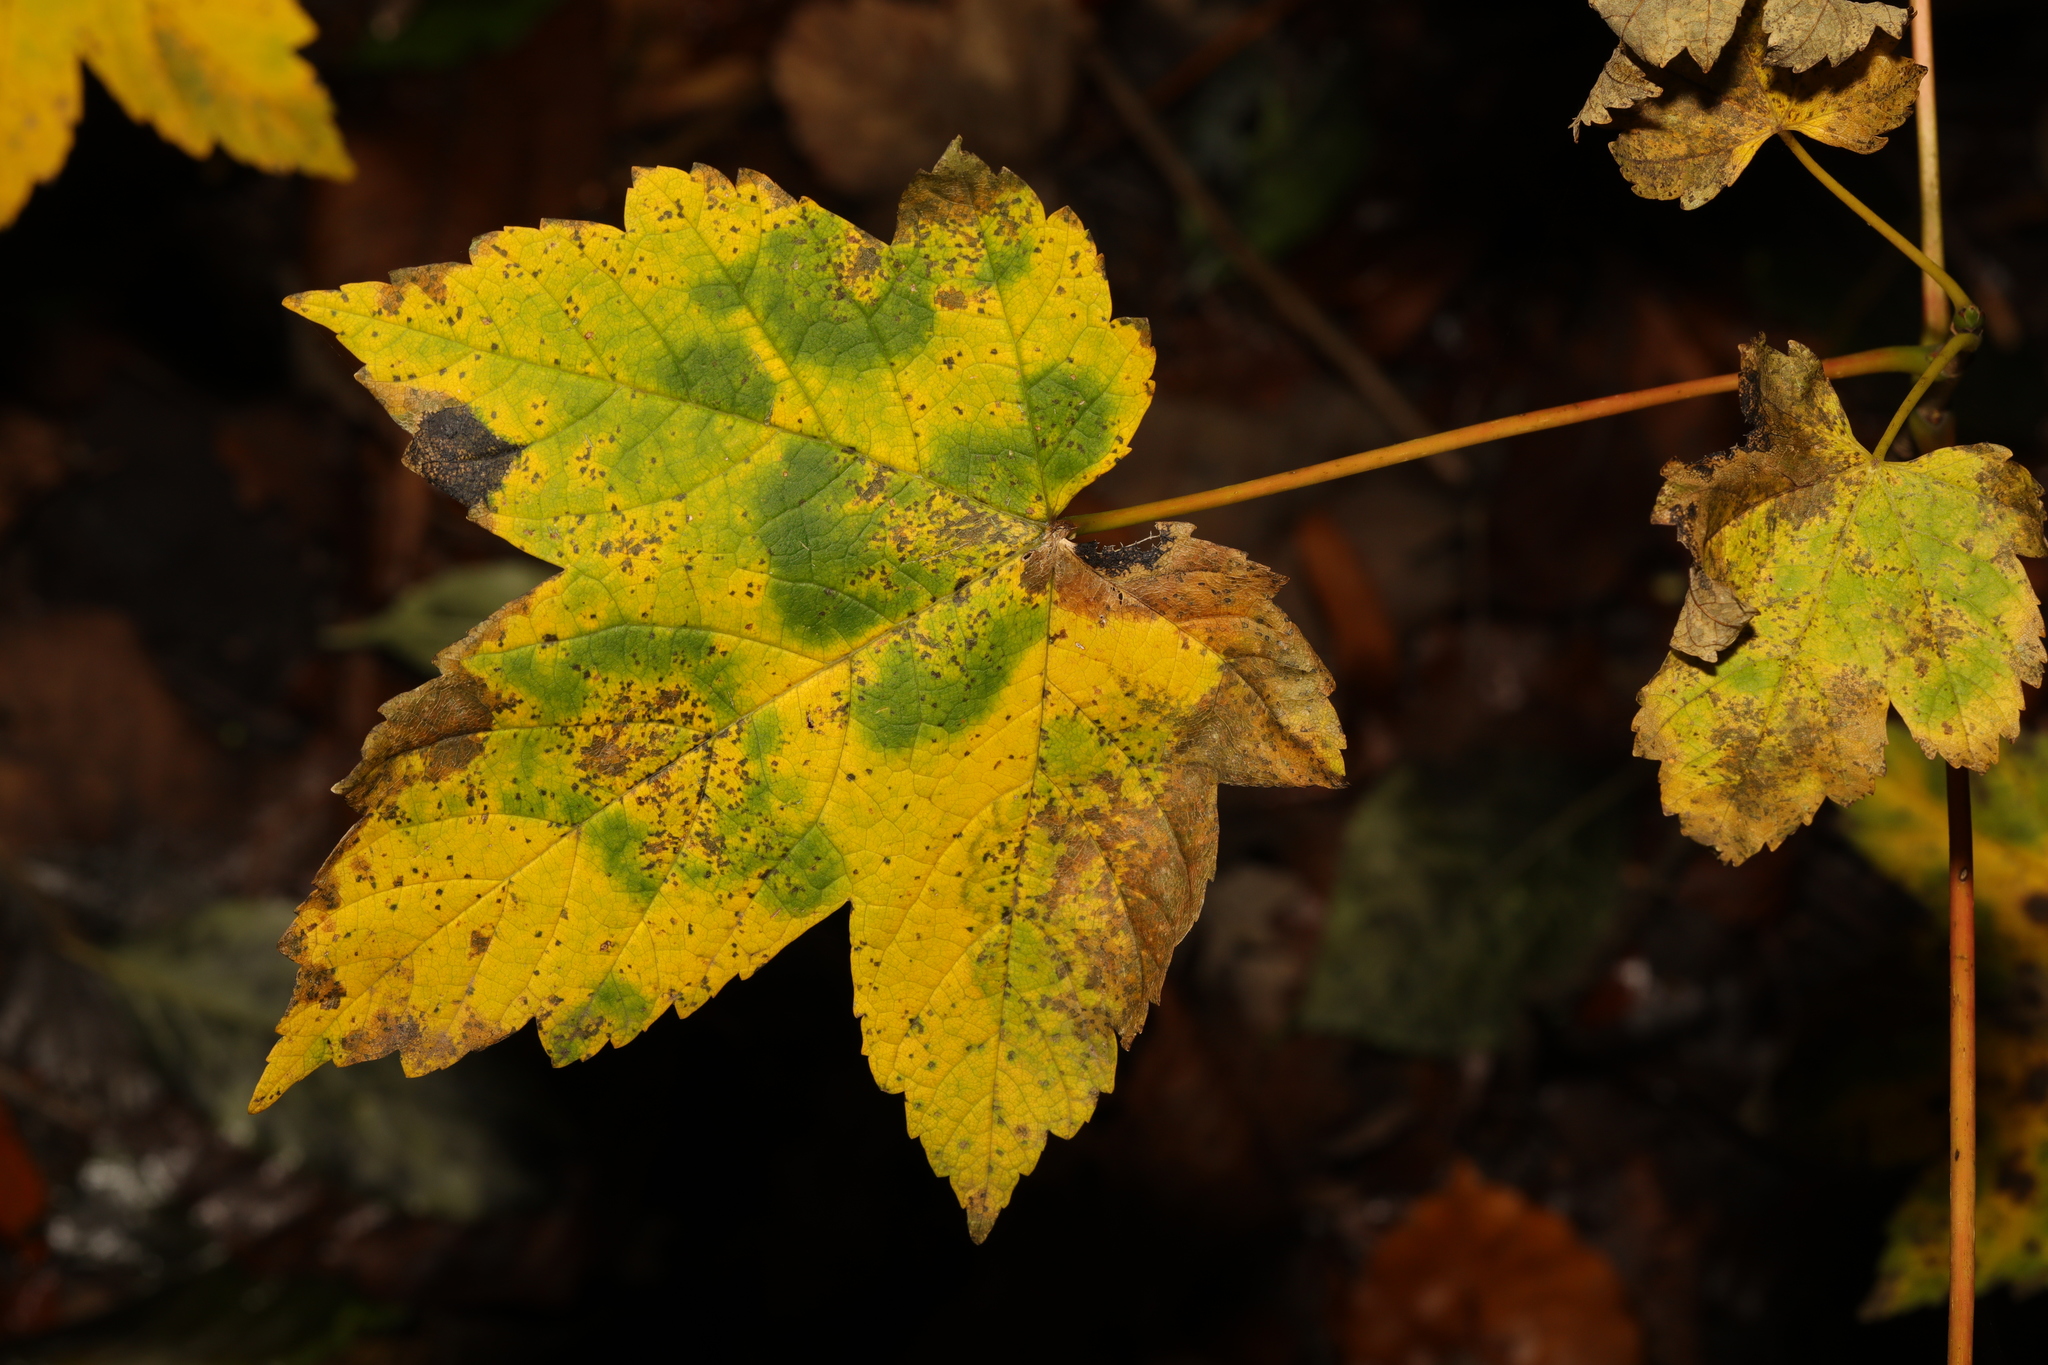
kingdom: Plantae
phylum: Tracheophyta
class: Magnoliopsida
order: Sapindales
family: Sapindaceae
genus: Acer
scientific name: Acer pseudoplatanus
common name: Sycamore
